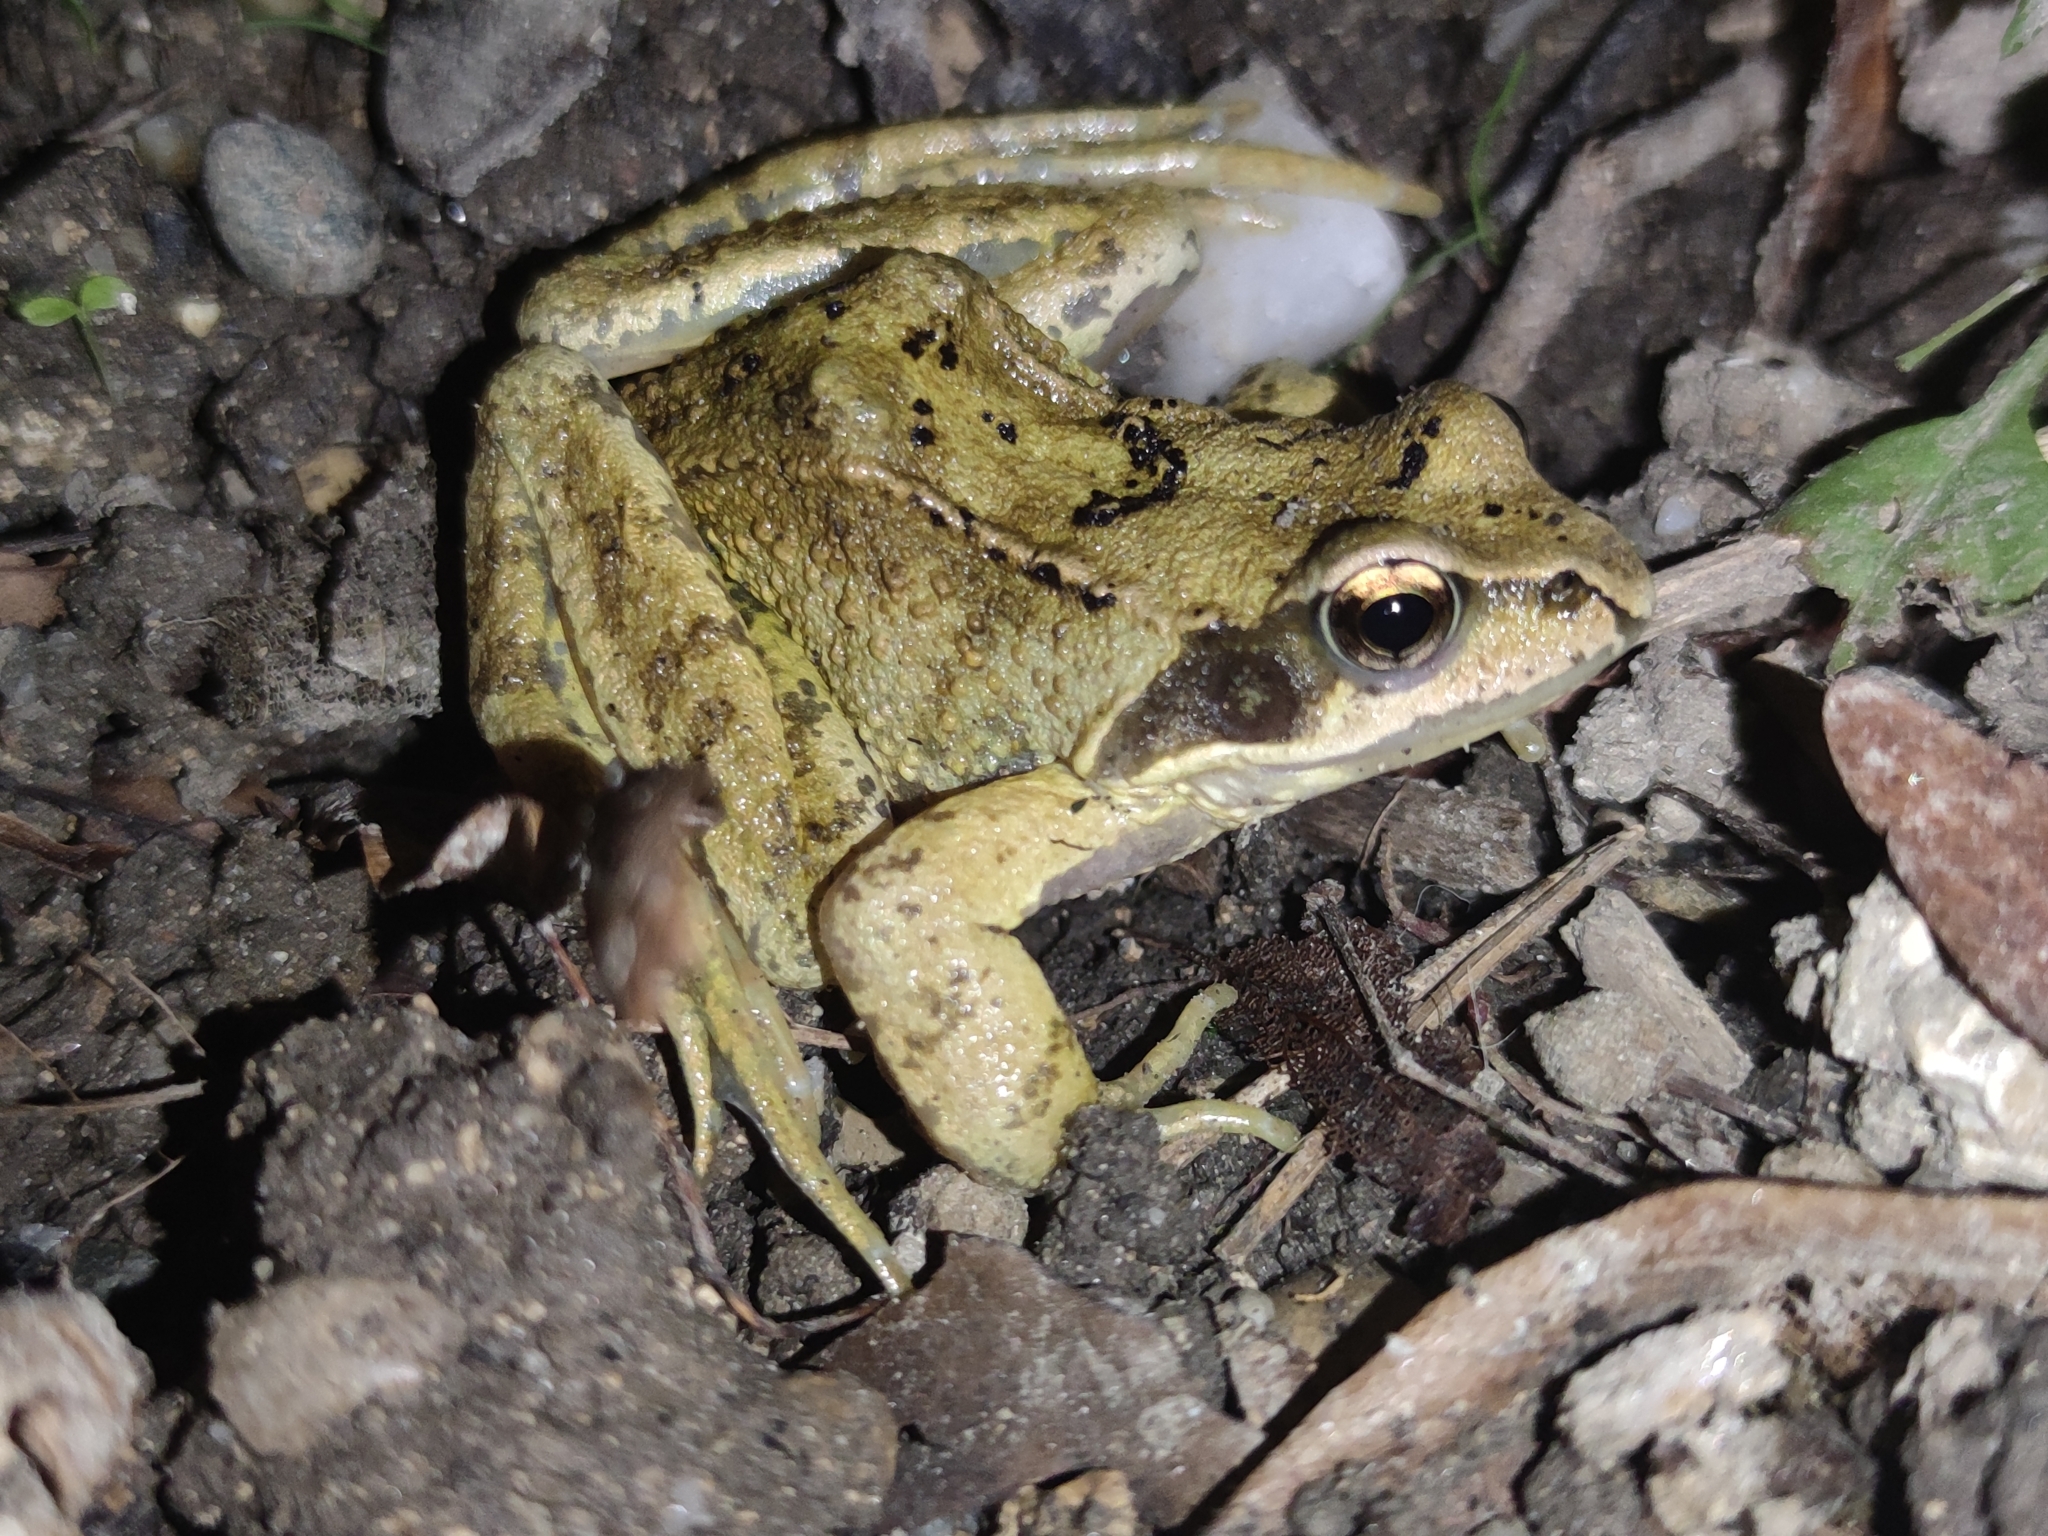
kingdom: Animalia
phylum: Chordata
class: Amphibia
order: Anura
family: Ranidae
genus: Rana
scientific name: Rana temporaria
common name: Common frog
